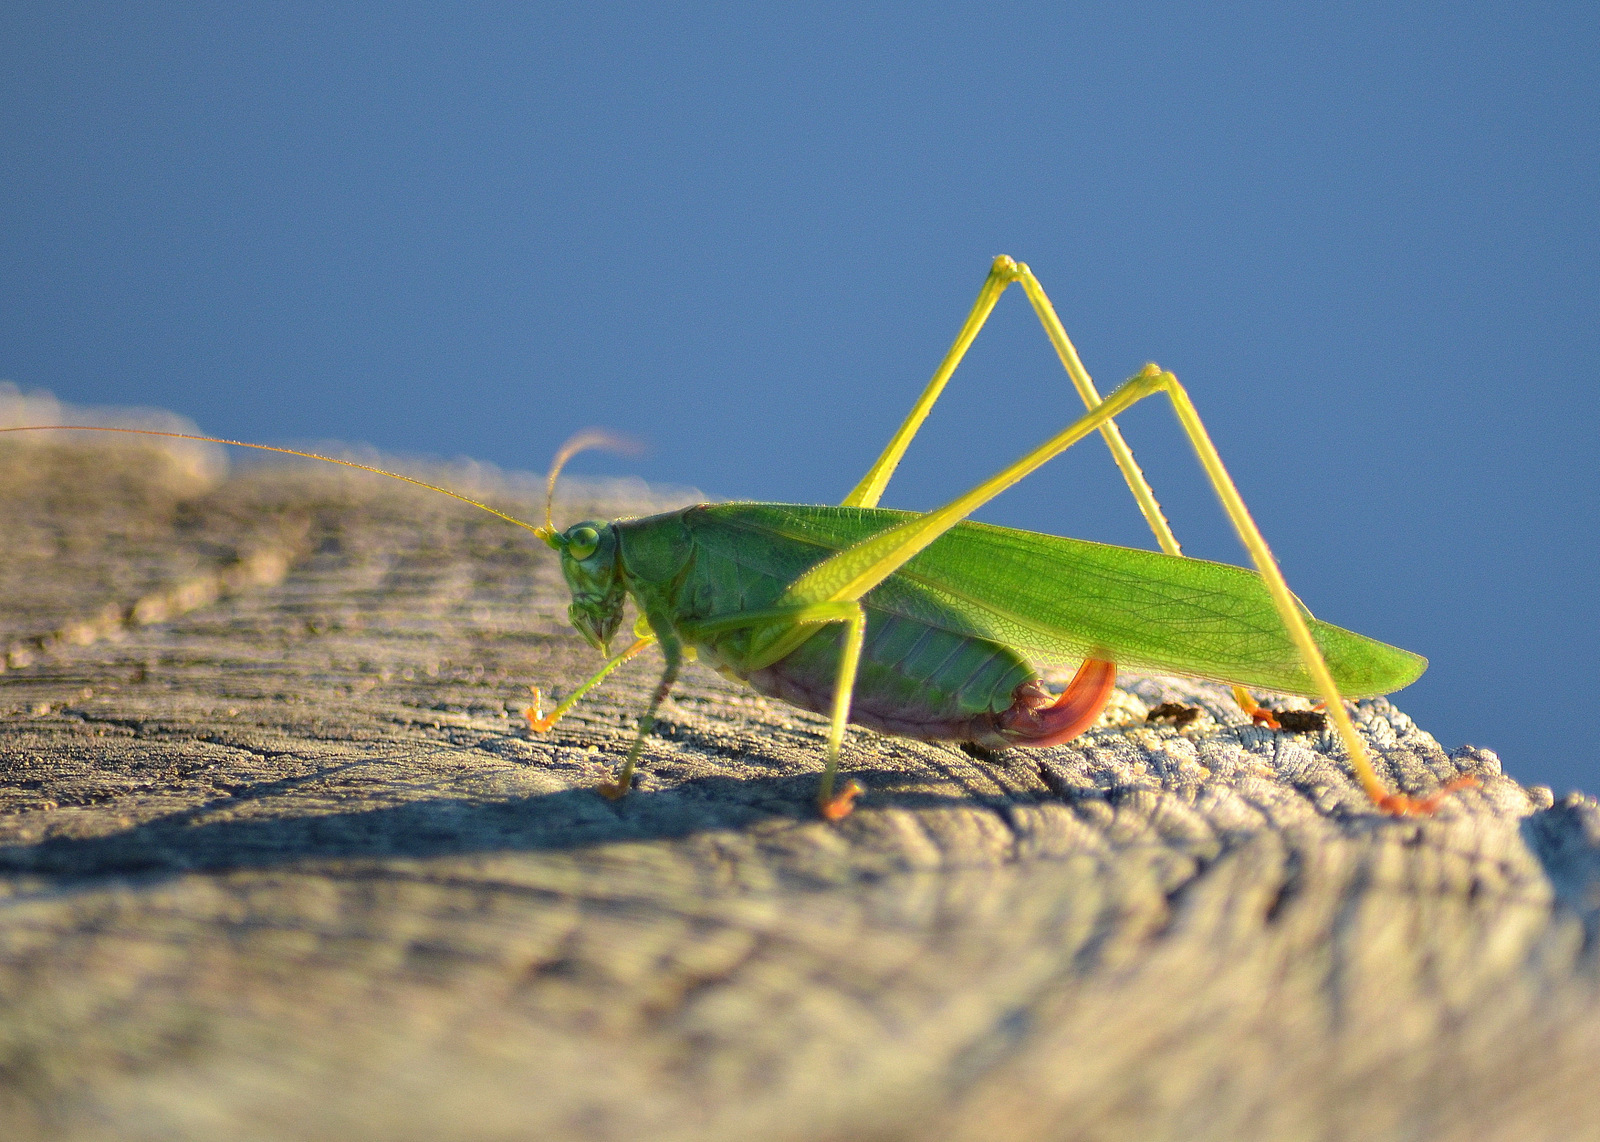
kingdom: Animalia
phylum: Arthropoda
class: Insecta
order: Orthoptera
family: Tettigoniidae
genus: Scudderia
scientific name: Scudderia furcata
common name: Fork-tailed bush katydid
